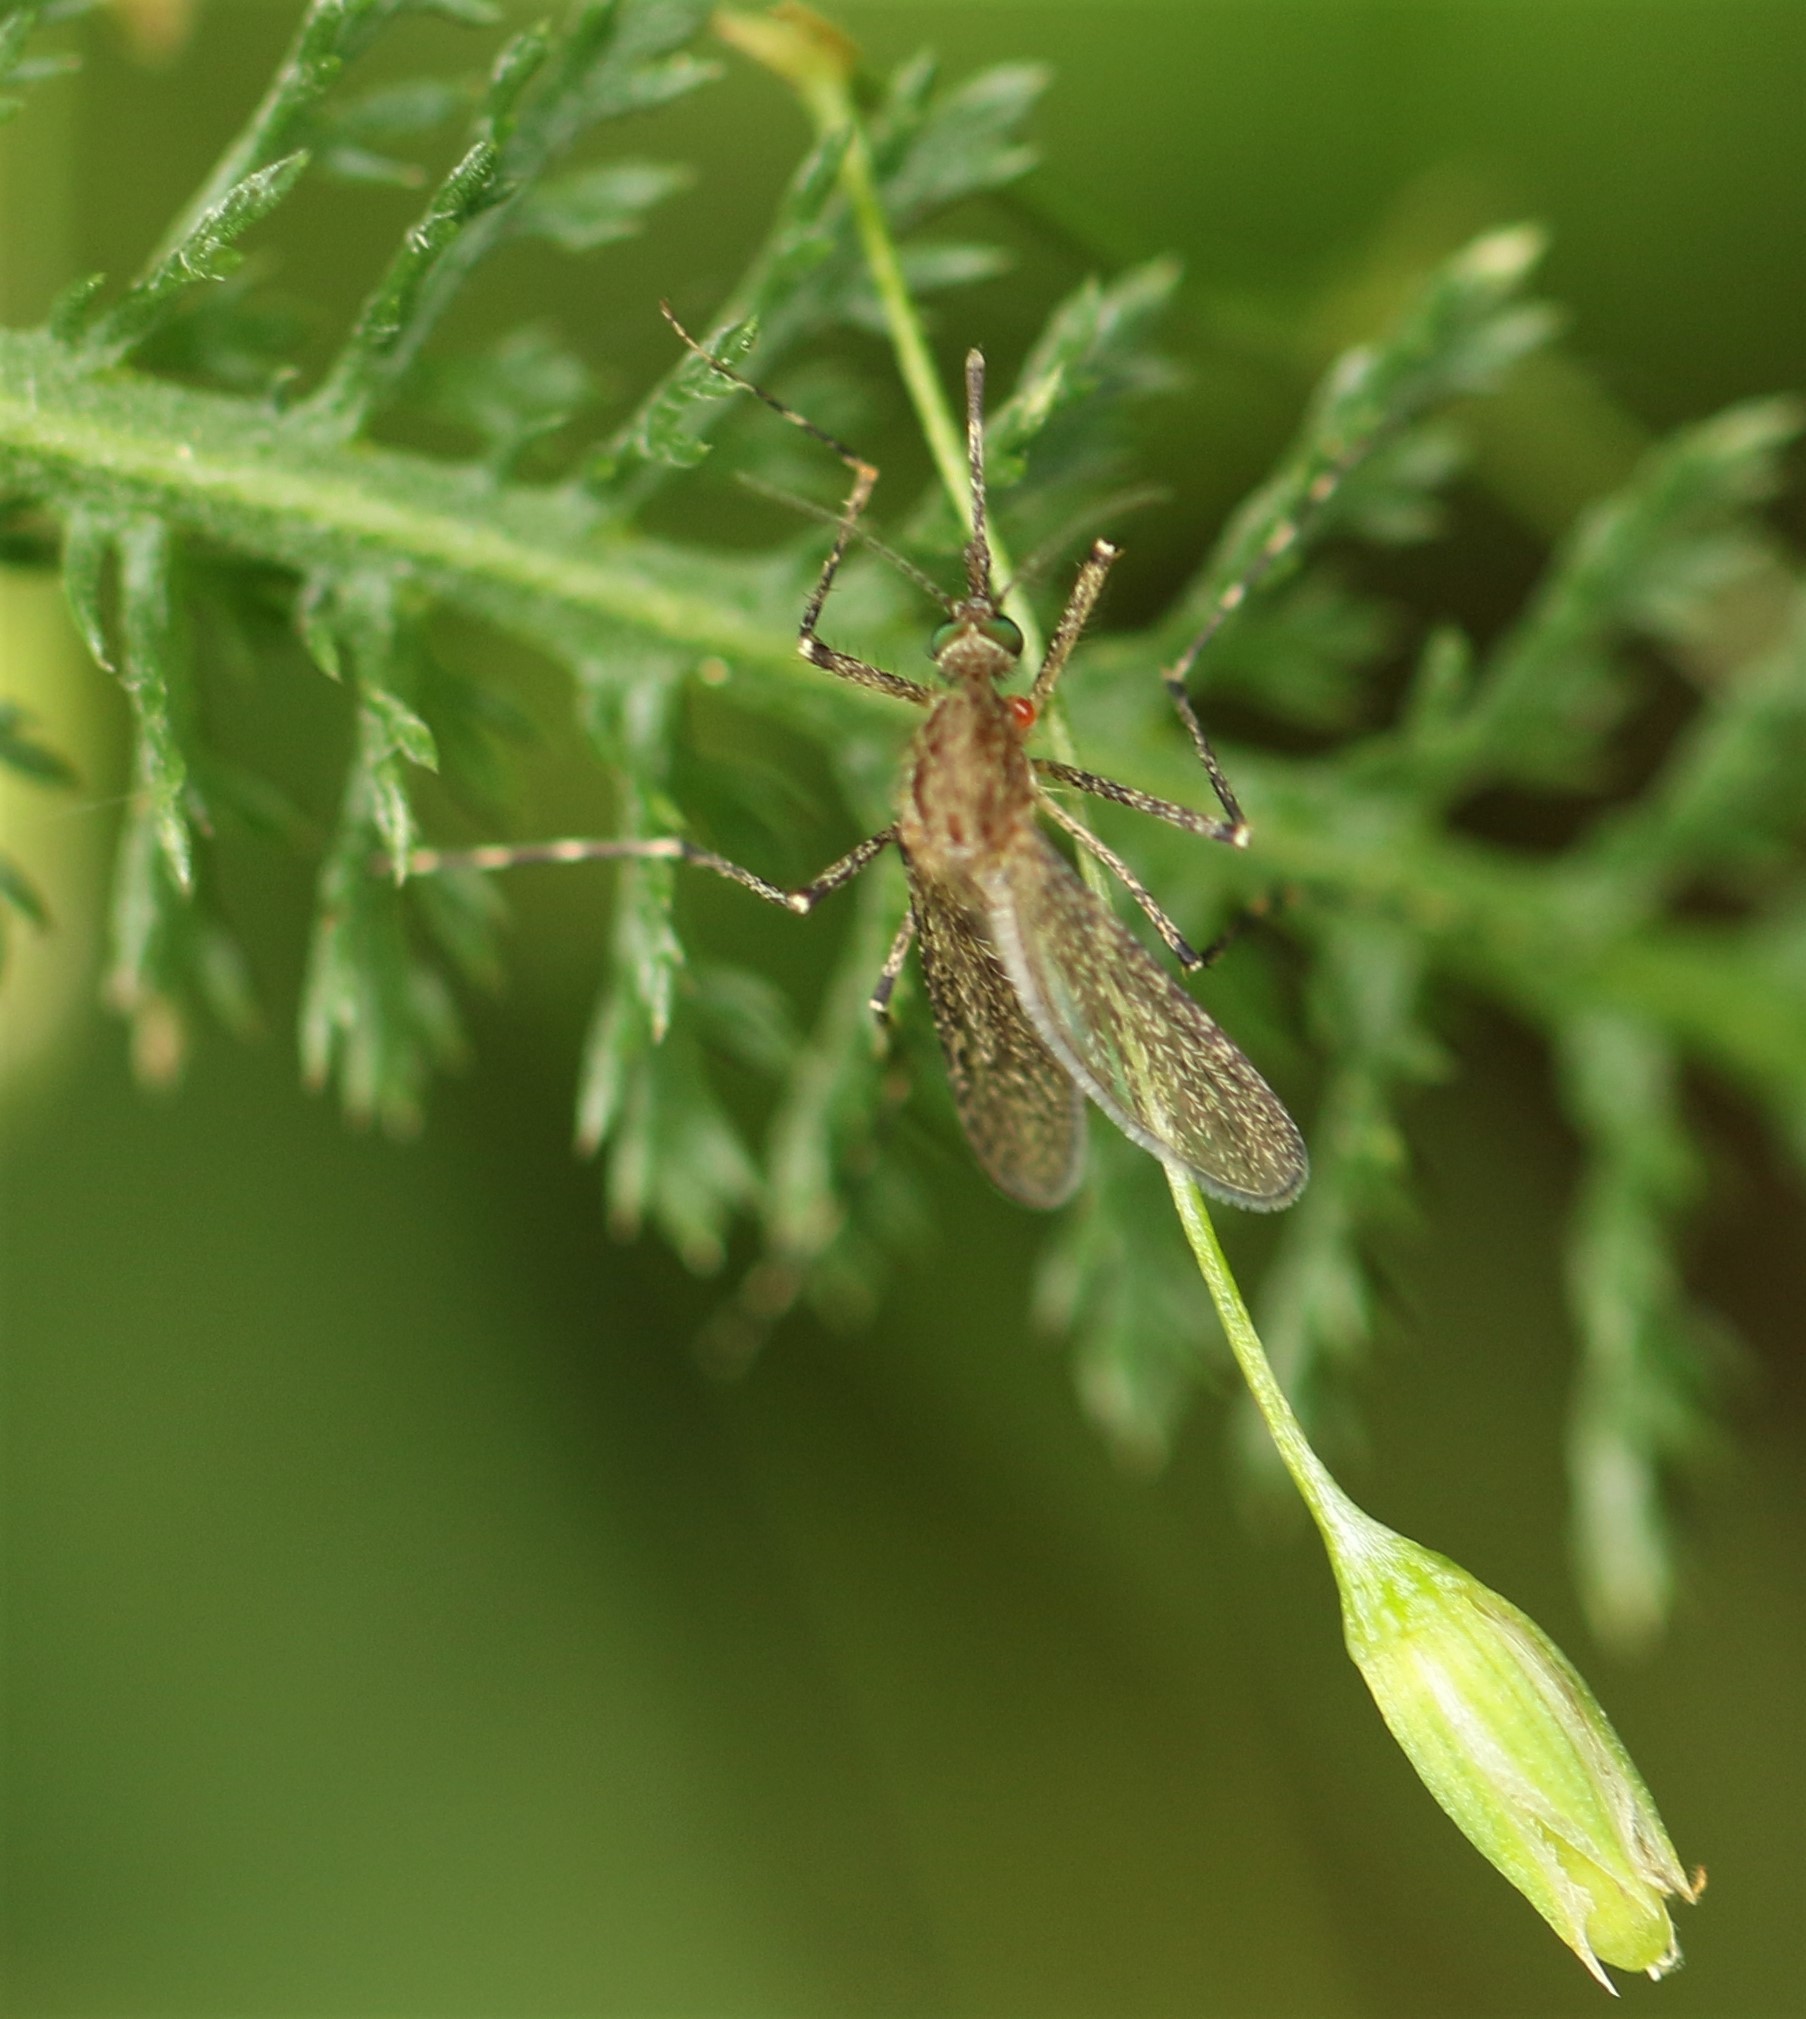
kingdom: Animalia
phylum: Arthropoda
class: Insecta
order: Diptera
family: Culicidae
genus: Coquillettidia
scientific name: Coquillettidia perturbans
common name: Cattail mosquito
